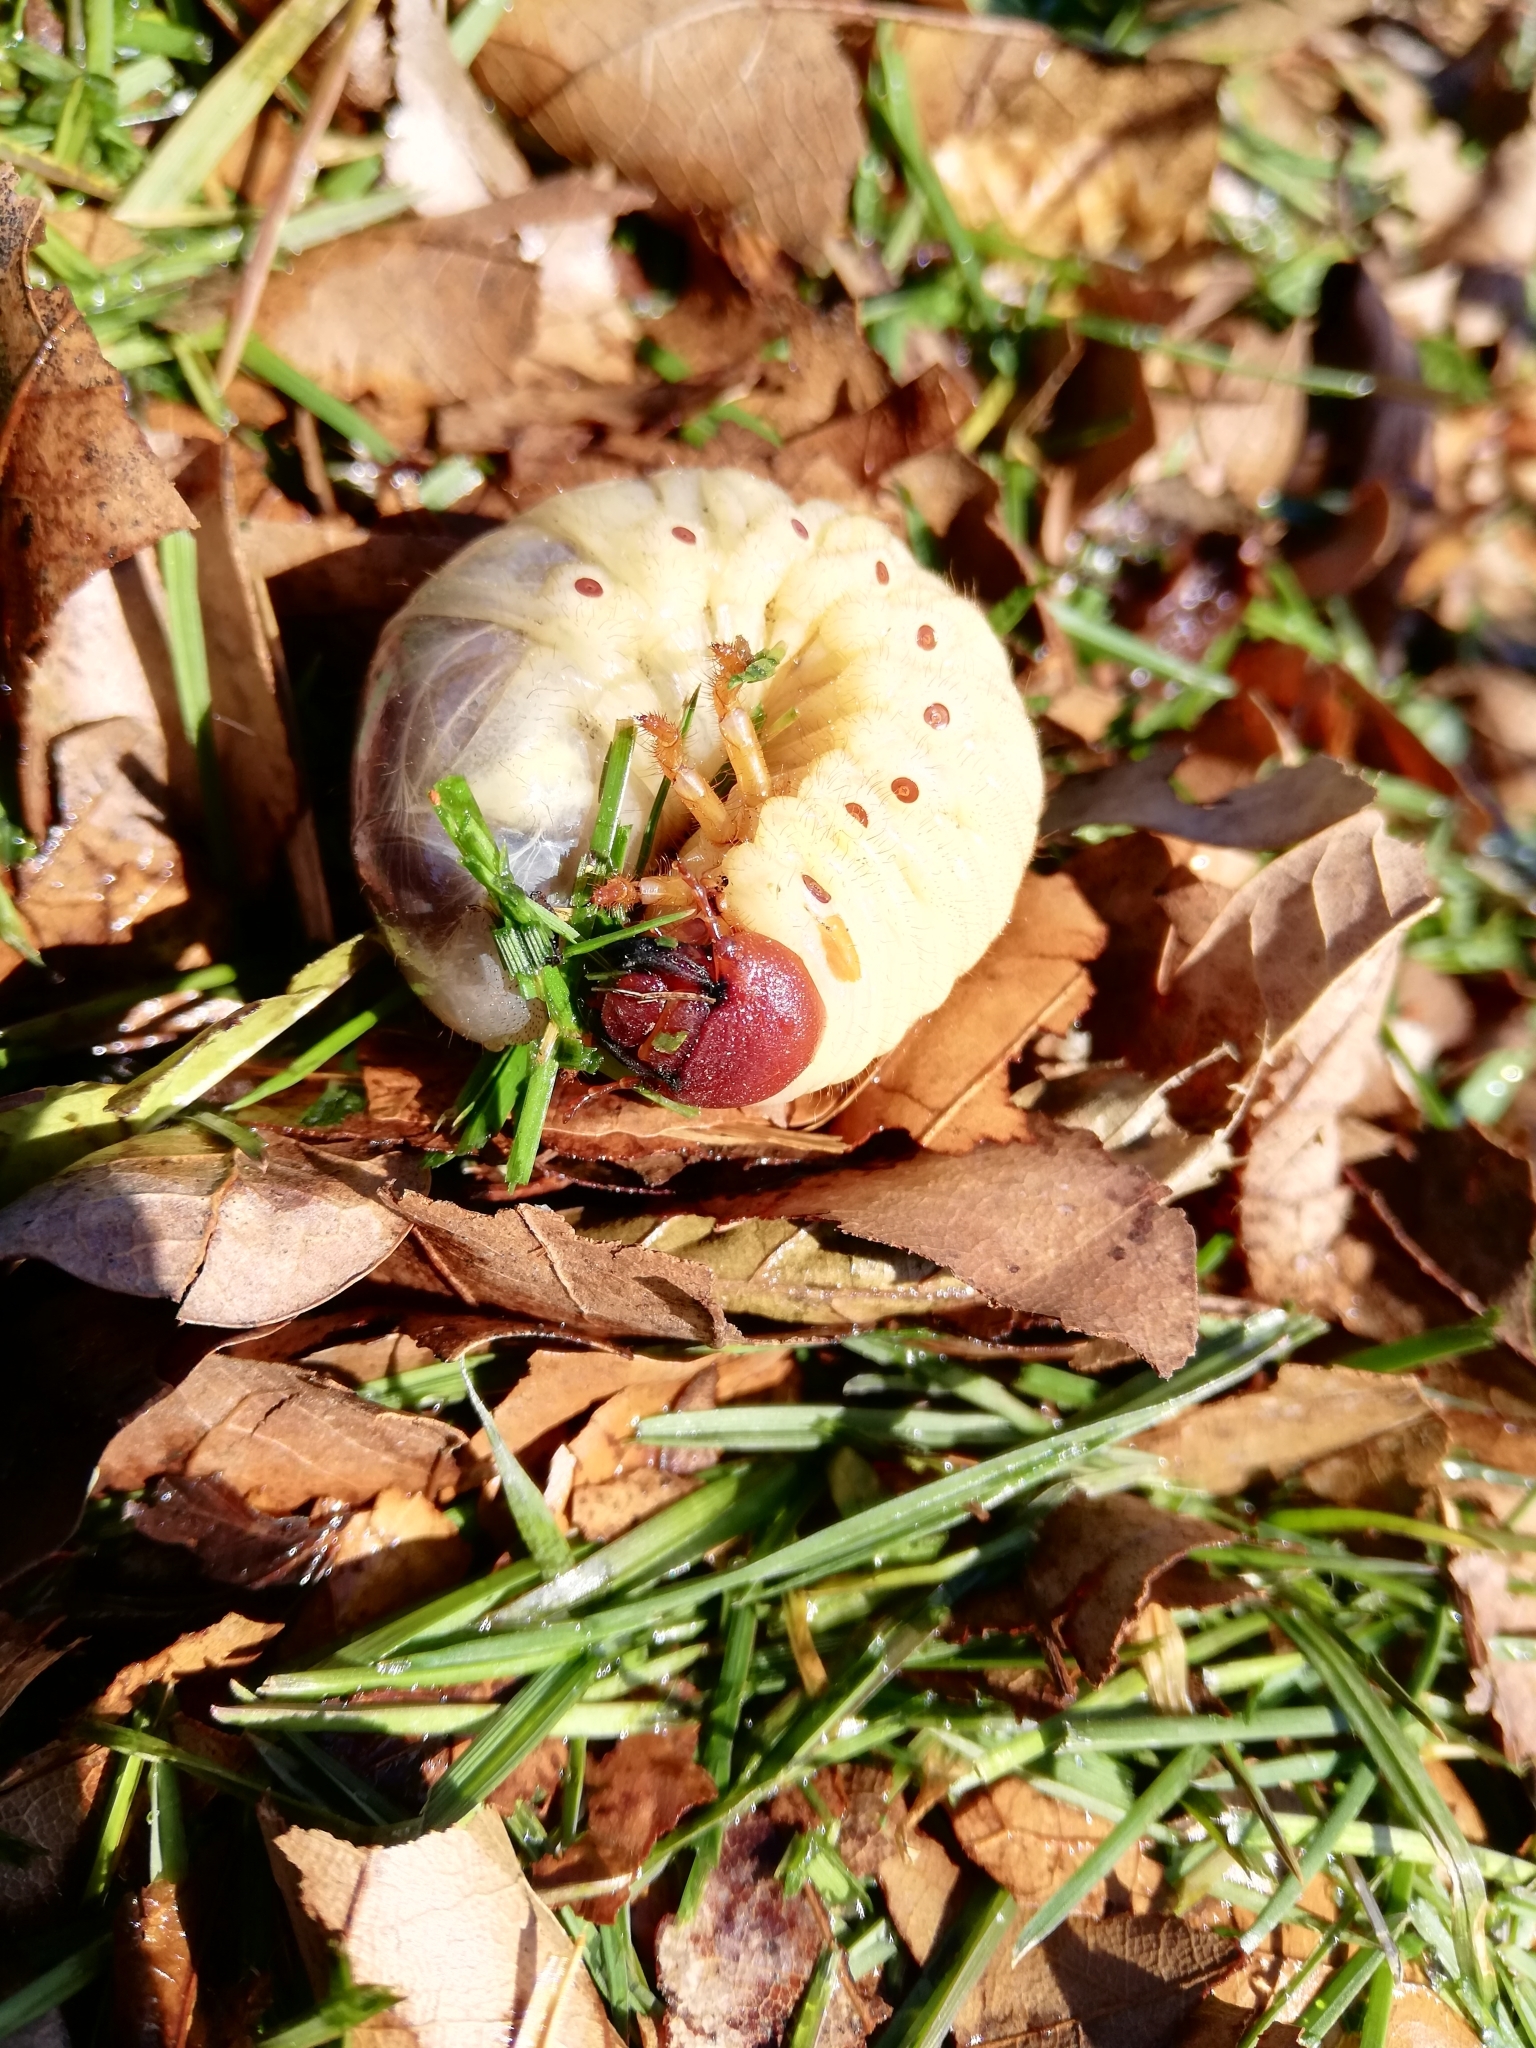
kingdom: Animalia
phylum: Arthropoda
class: Insecta
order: Coleoptera
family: Scarabaeidae
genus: Oryctes
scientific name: Oryctes nasicornis
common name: European rhinoceros beetle
